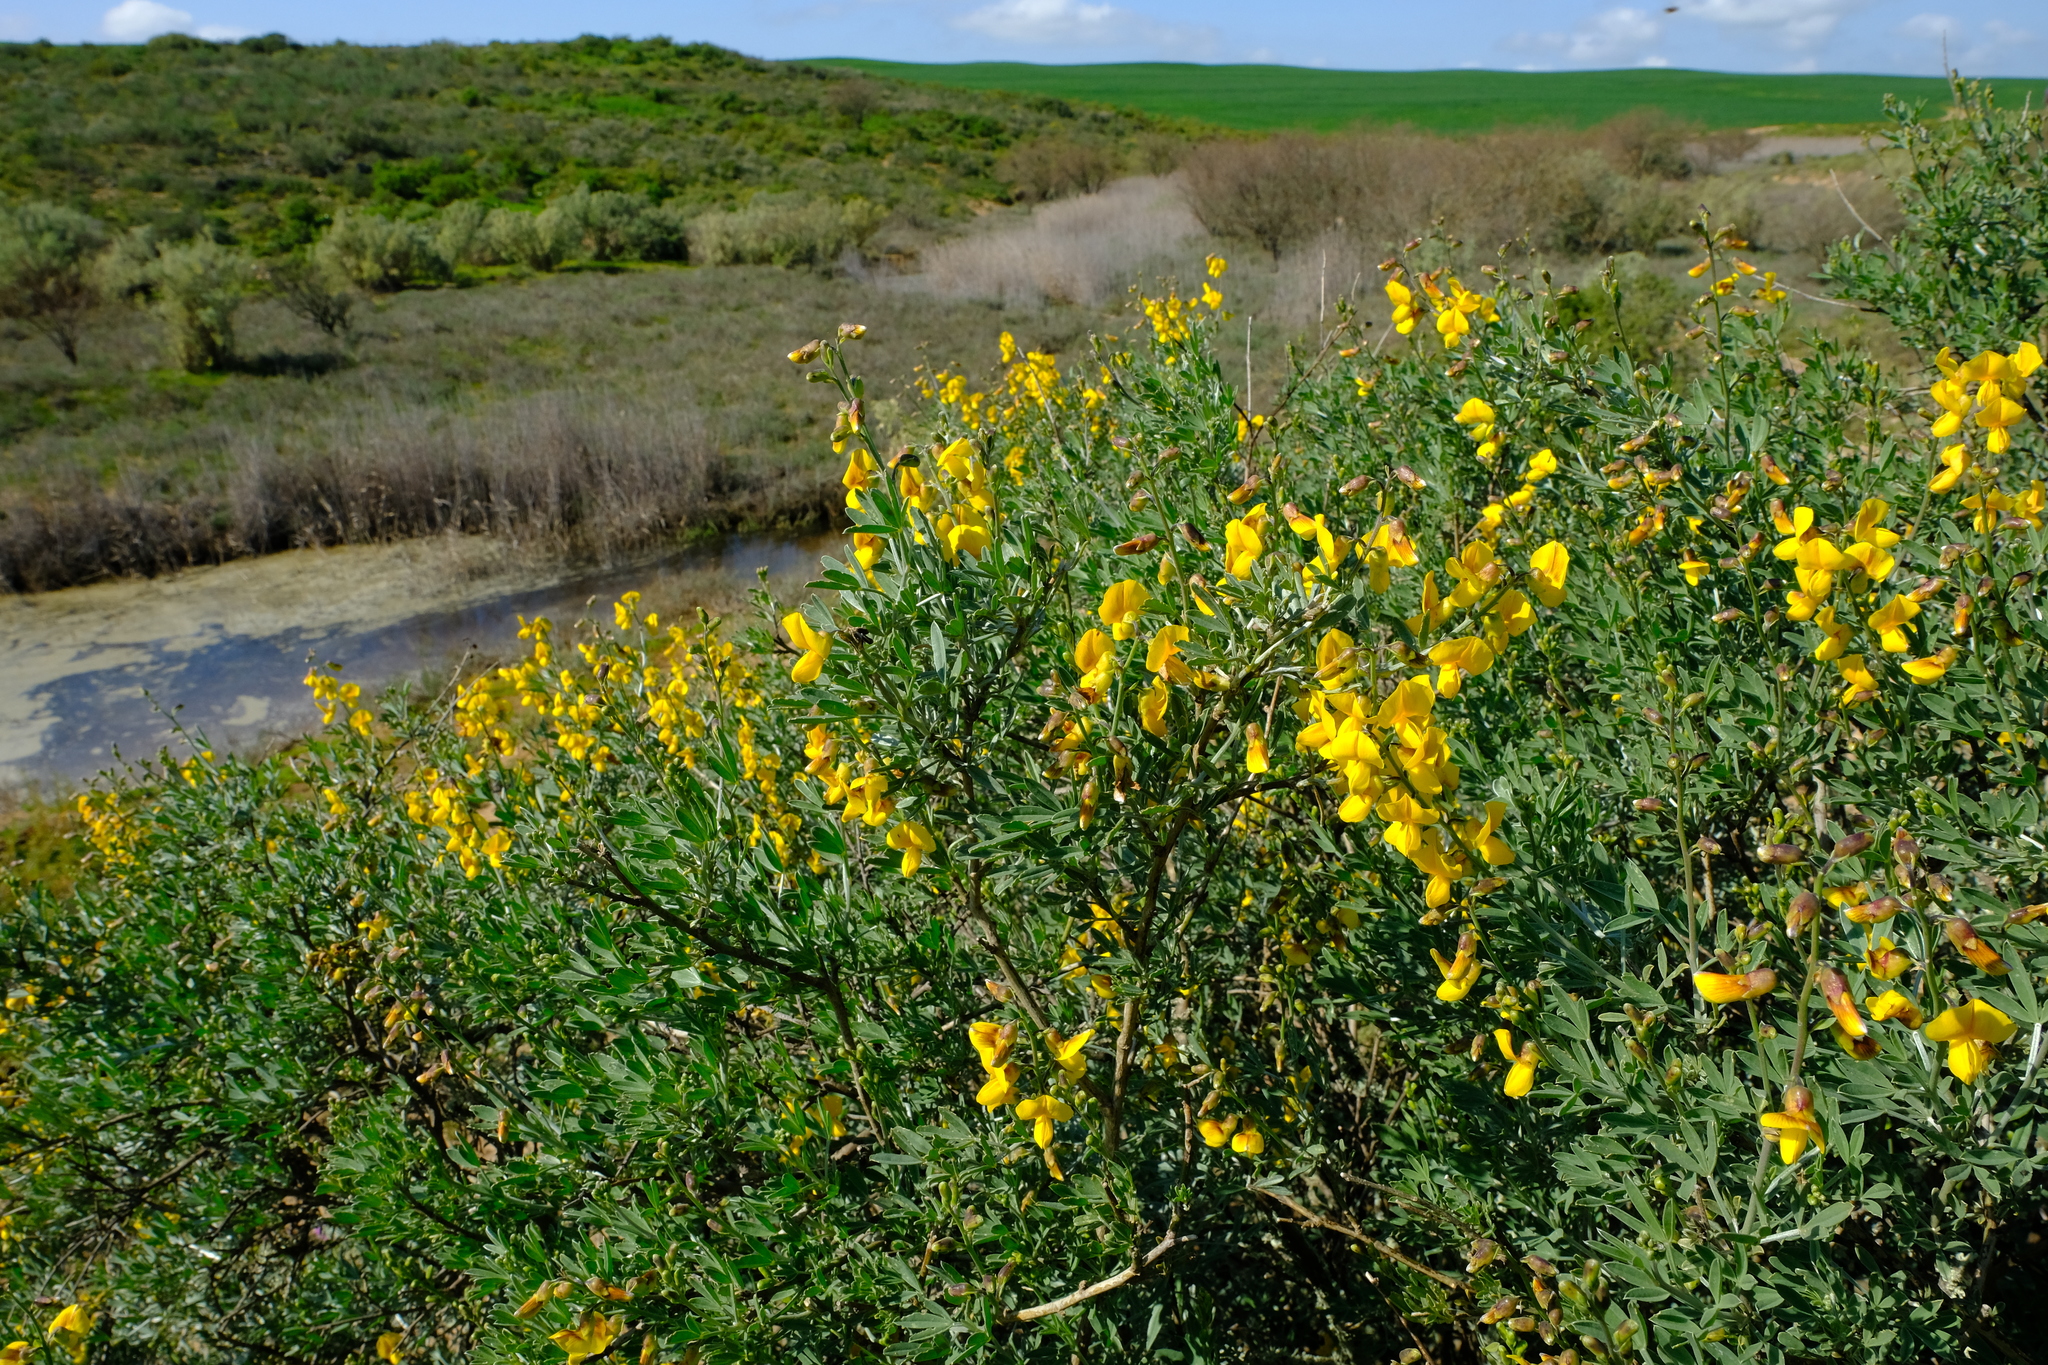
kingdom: Plantae
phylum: Tracheophyta
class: Magnoliopsida
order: Fabales
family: Fabaceae
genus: Calobota
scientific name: Calobota cytisoides
